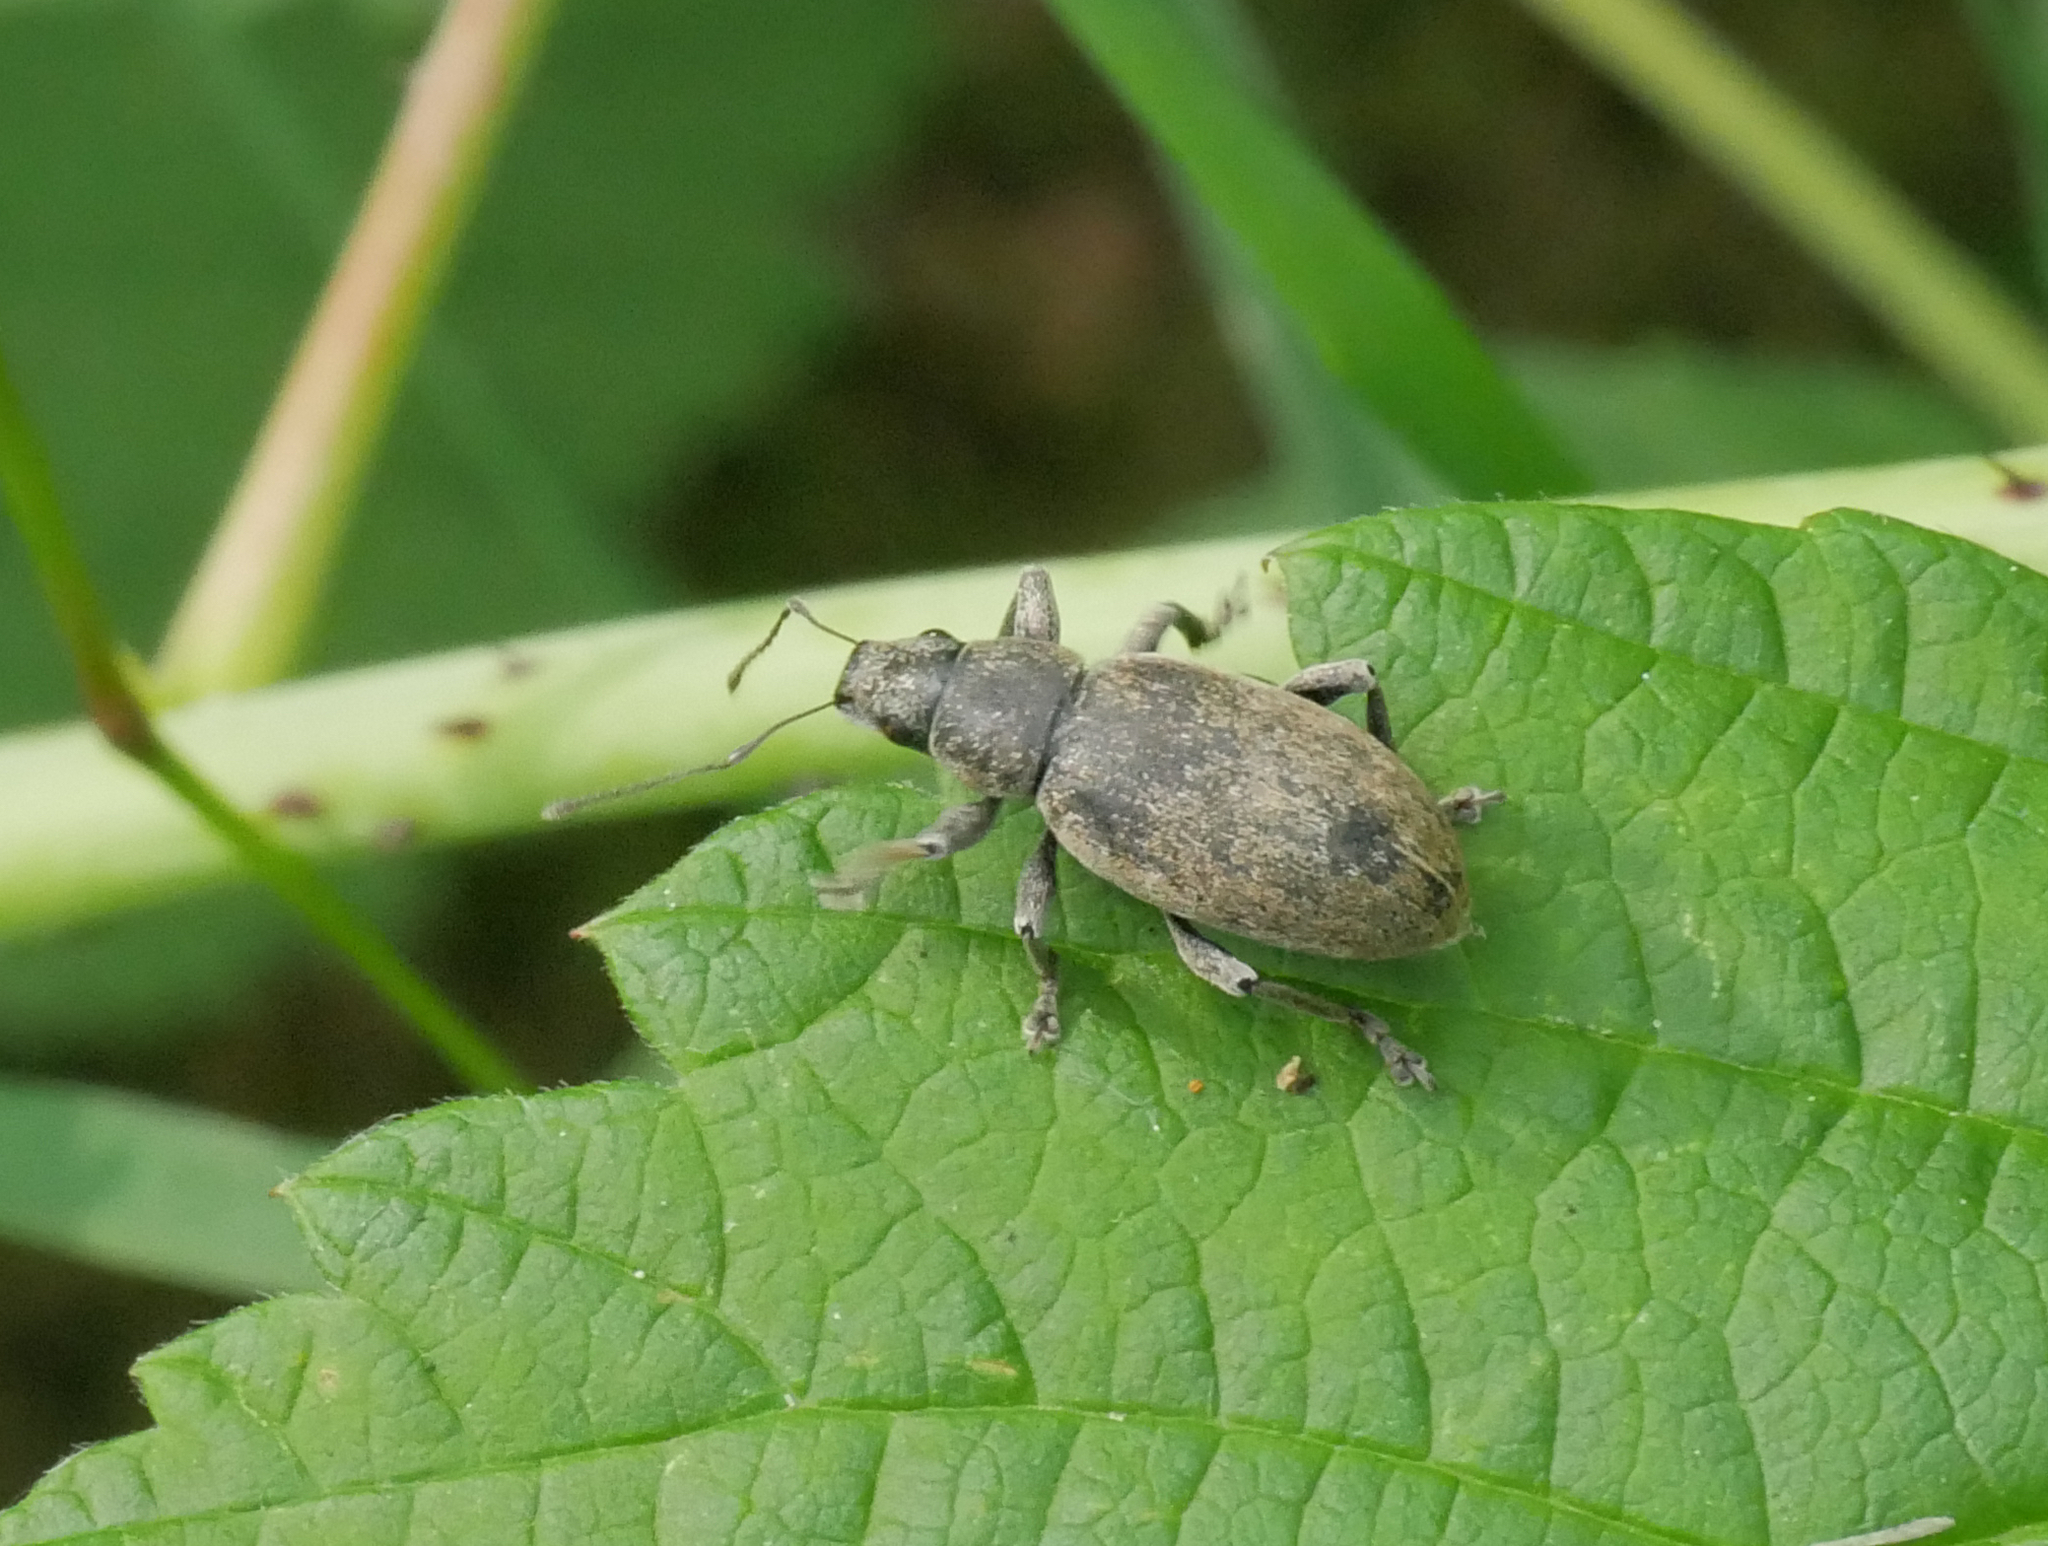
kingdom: Animalia
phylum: Arthropoda
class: Insecta
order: Coleoptera
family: Curculionidae
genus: Brachyderes
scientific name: Brachyderes incanus
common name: Weevil
